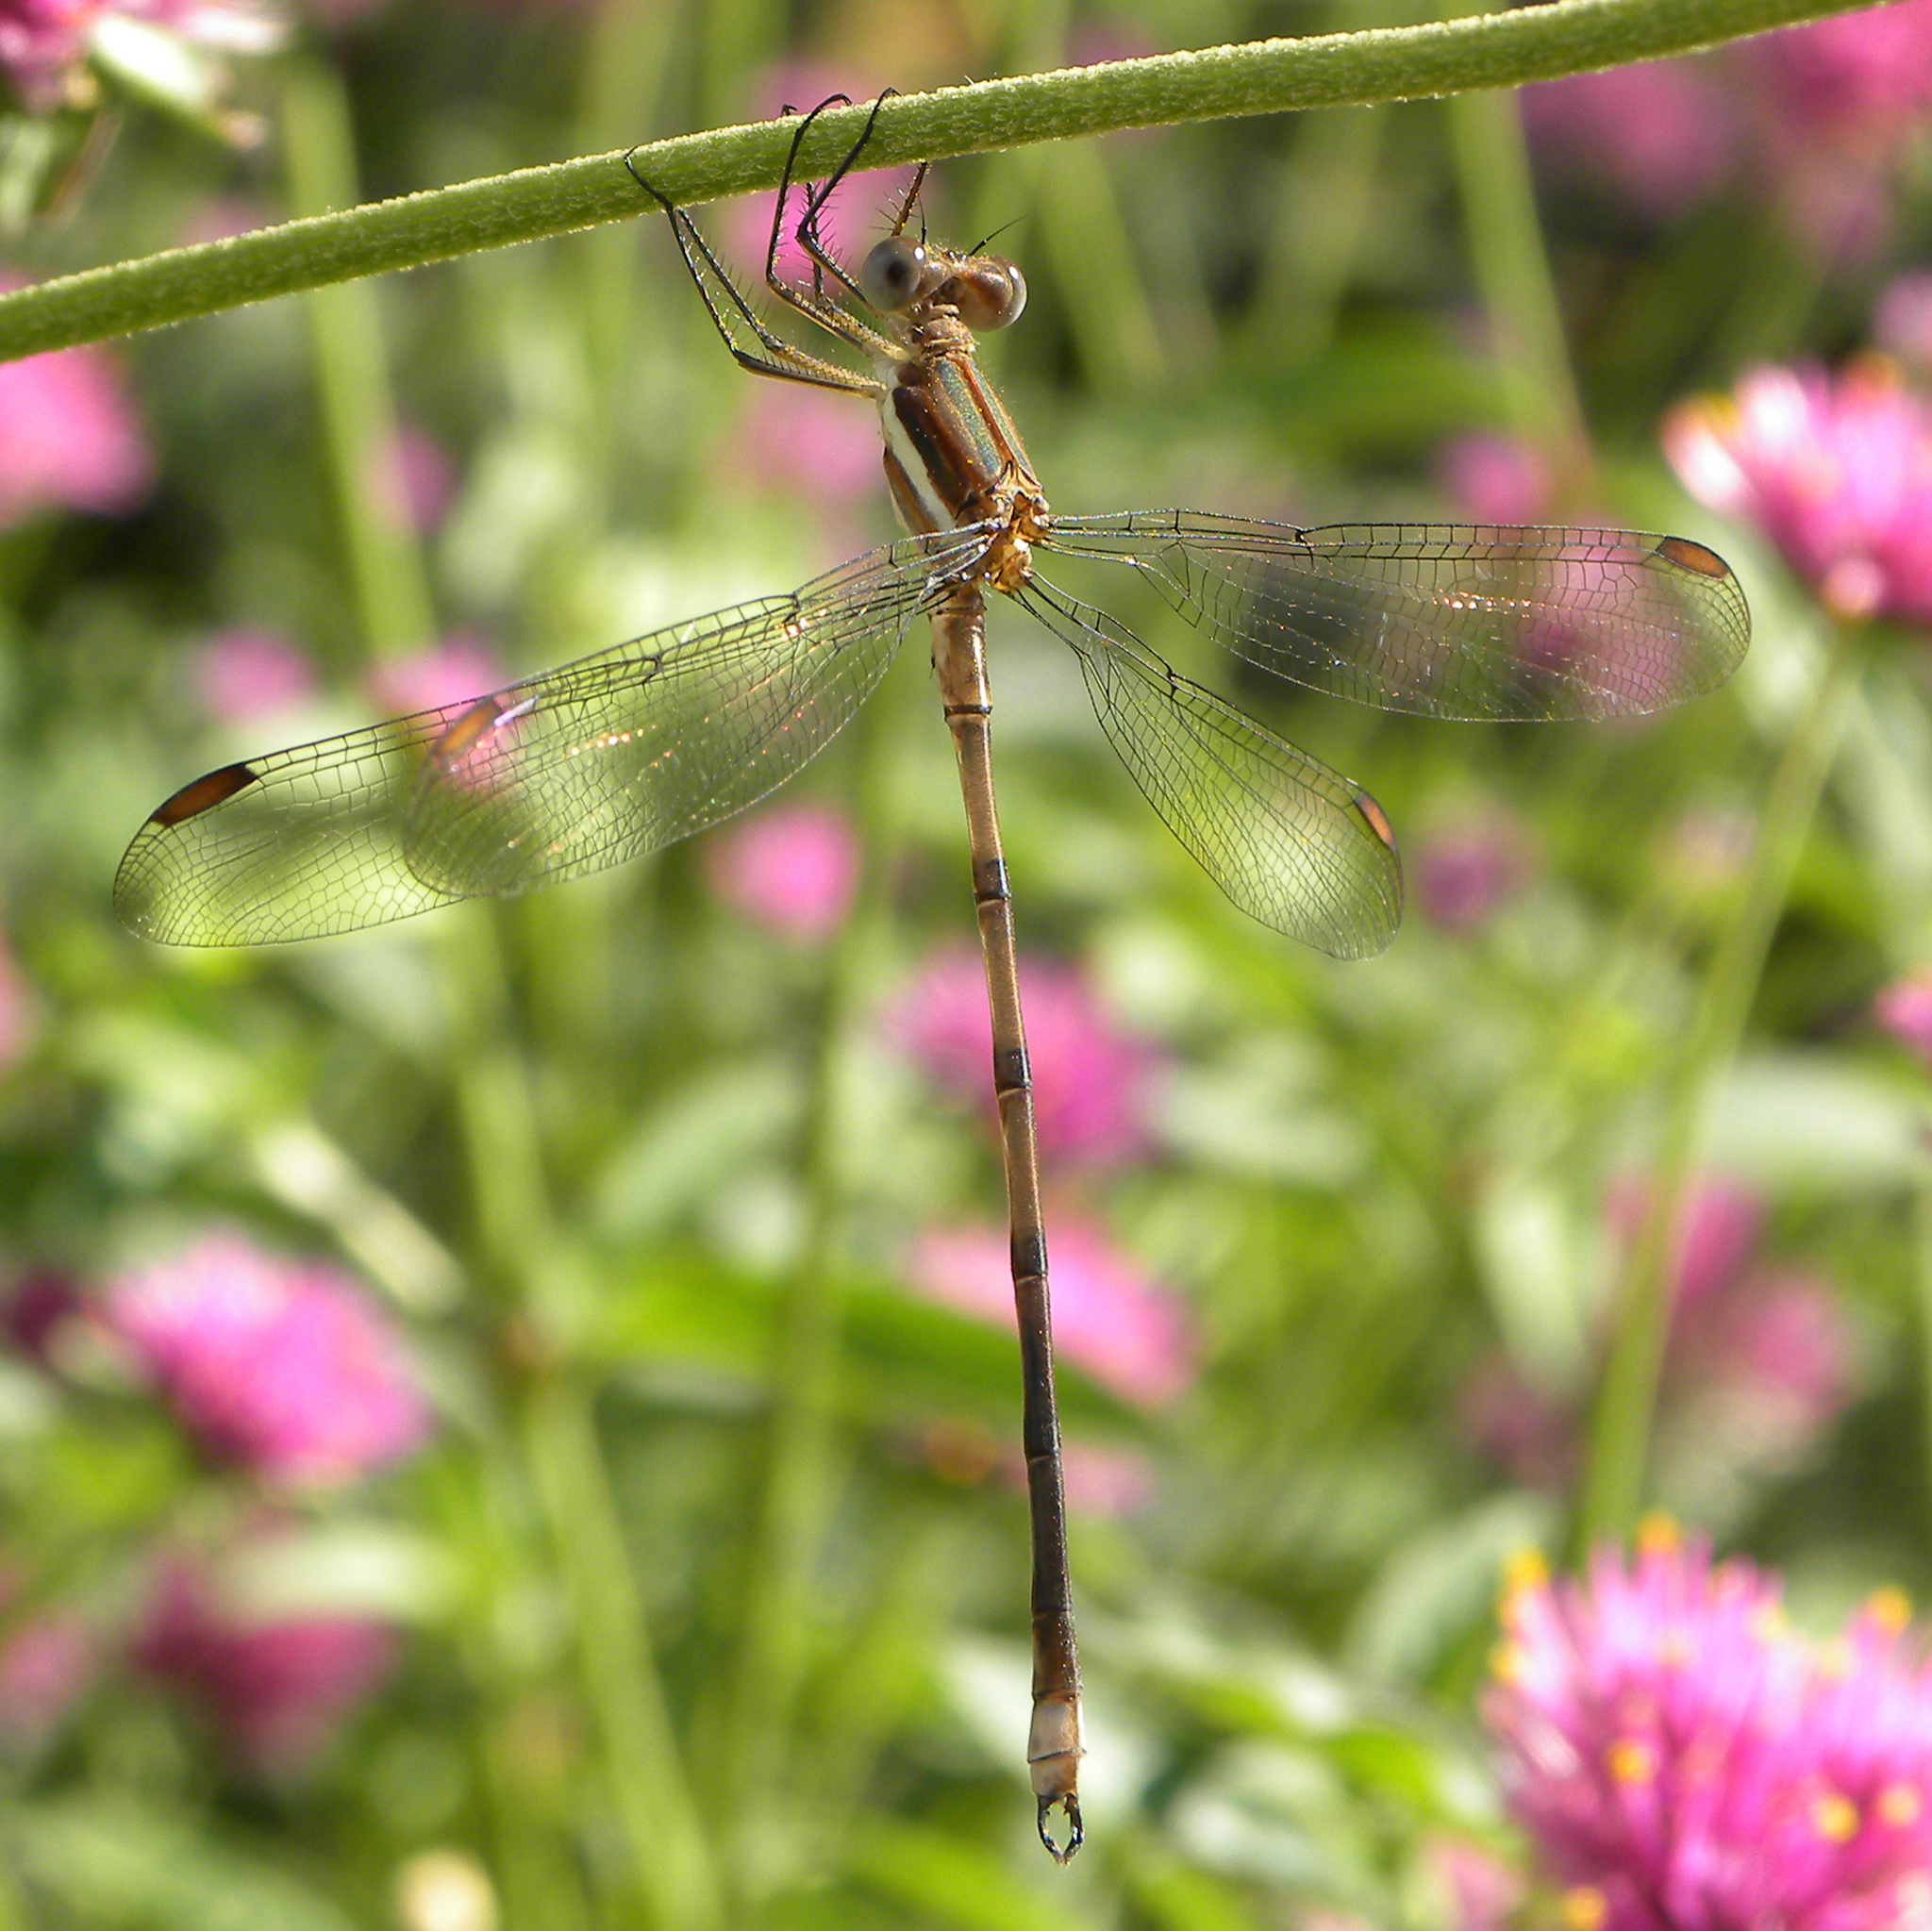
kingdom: Animalia
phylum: Arthropoda
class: Insecta
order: Odonata
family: Lestidae
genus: Archilestes
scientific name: Archilestes grandis
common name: Great spreadwing
